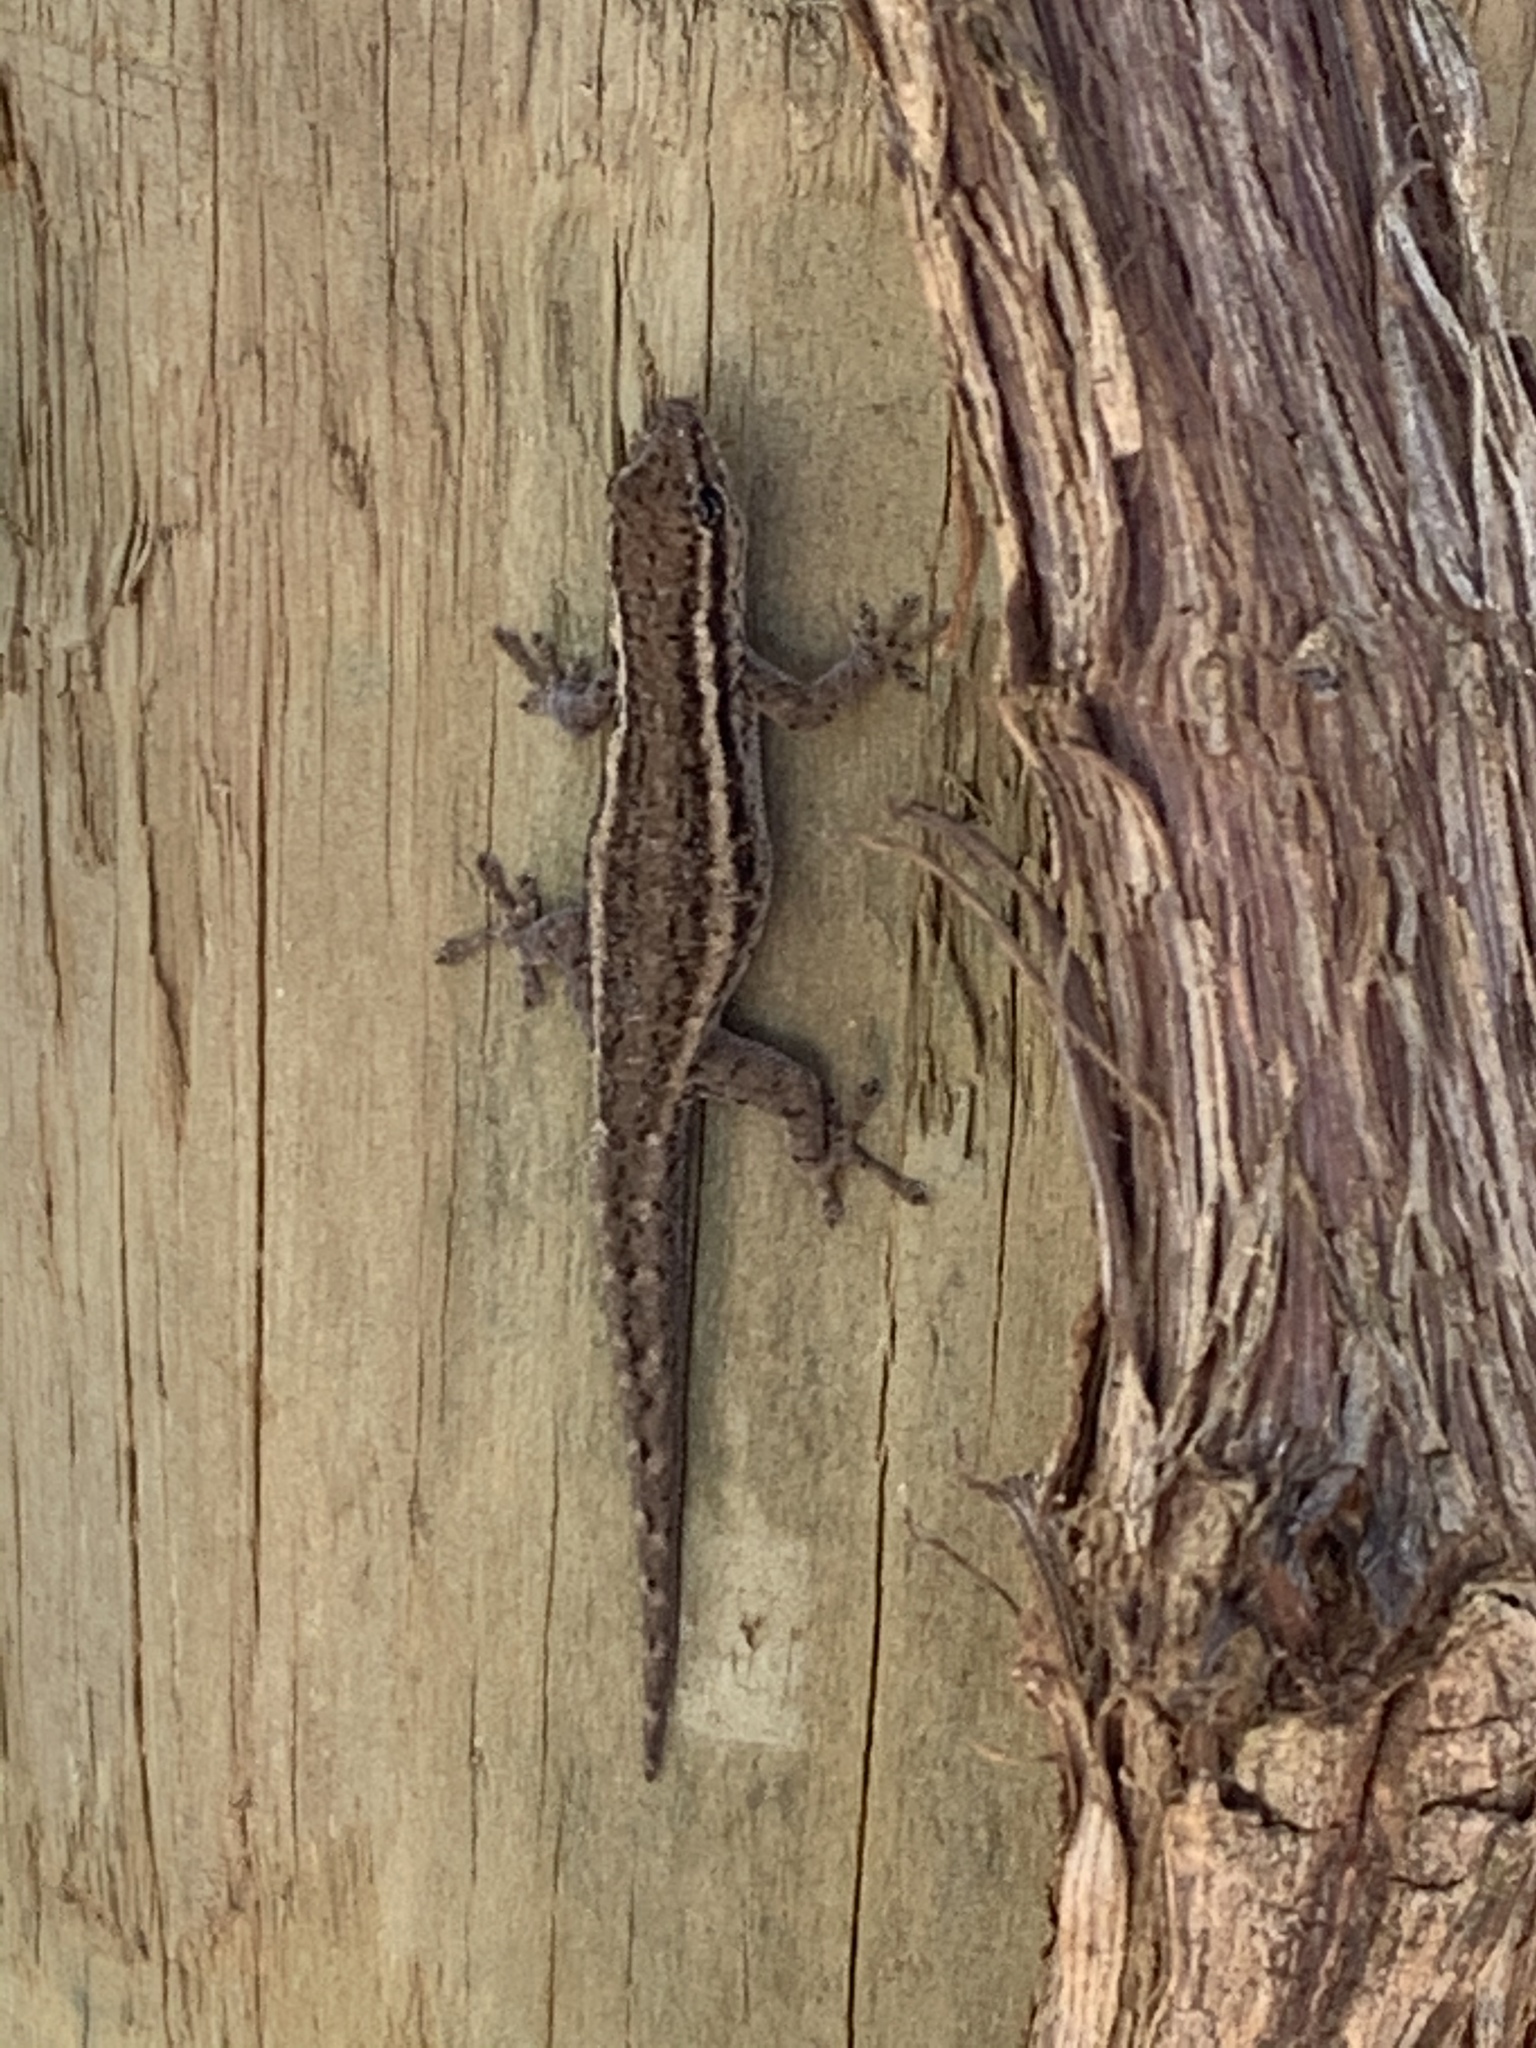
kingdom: Animalia
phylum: Chordata
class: Squamata
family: Gekkonidae
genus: Lygodactylus
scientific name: Lygodactylus capensis
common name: Cape dwarf gecko
